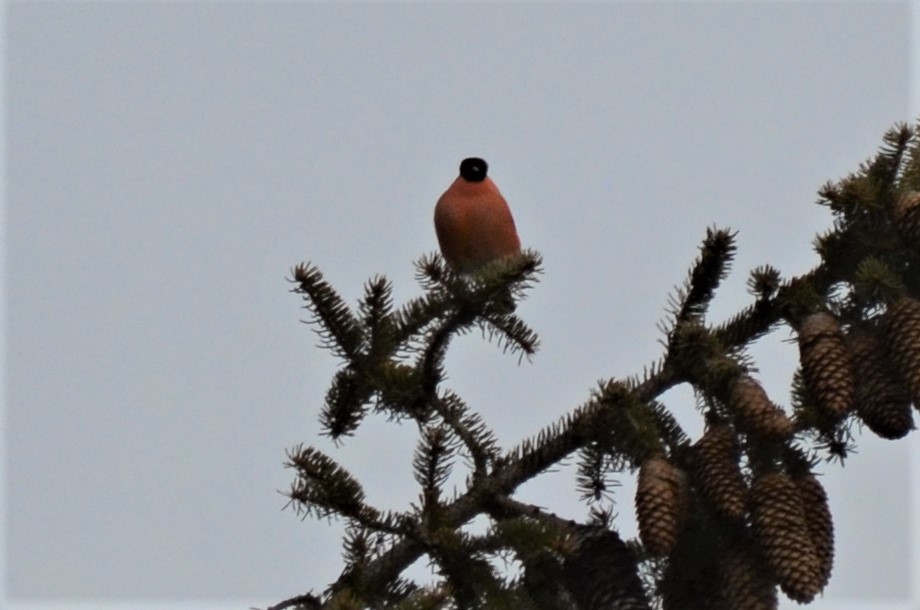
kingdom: Animalia
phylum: Chordata
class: Aves
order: Passeriformes
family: Fringillidae
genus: Pyrrhula
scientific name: Pyrrhula pyrrhula
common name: Eurasian bullfinch
